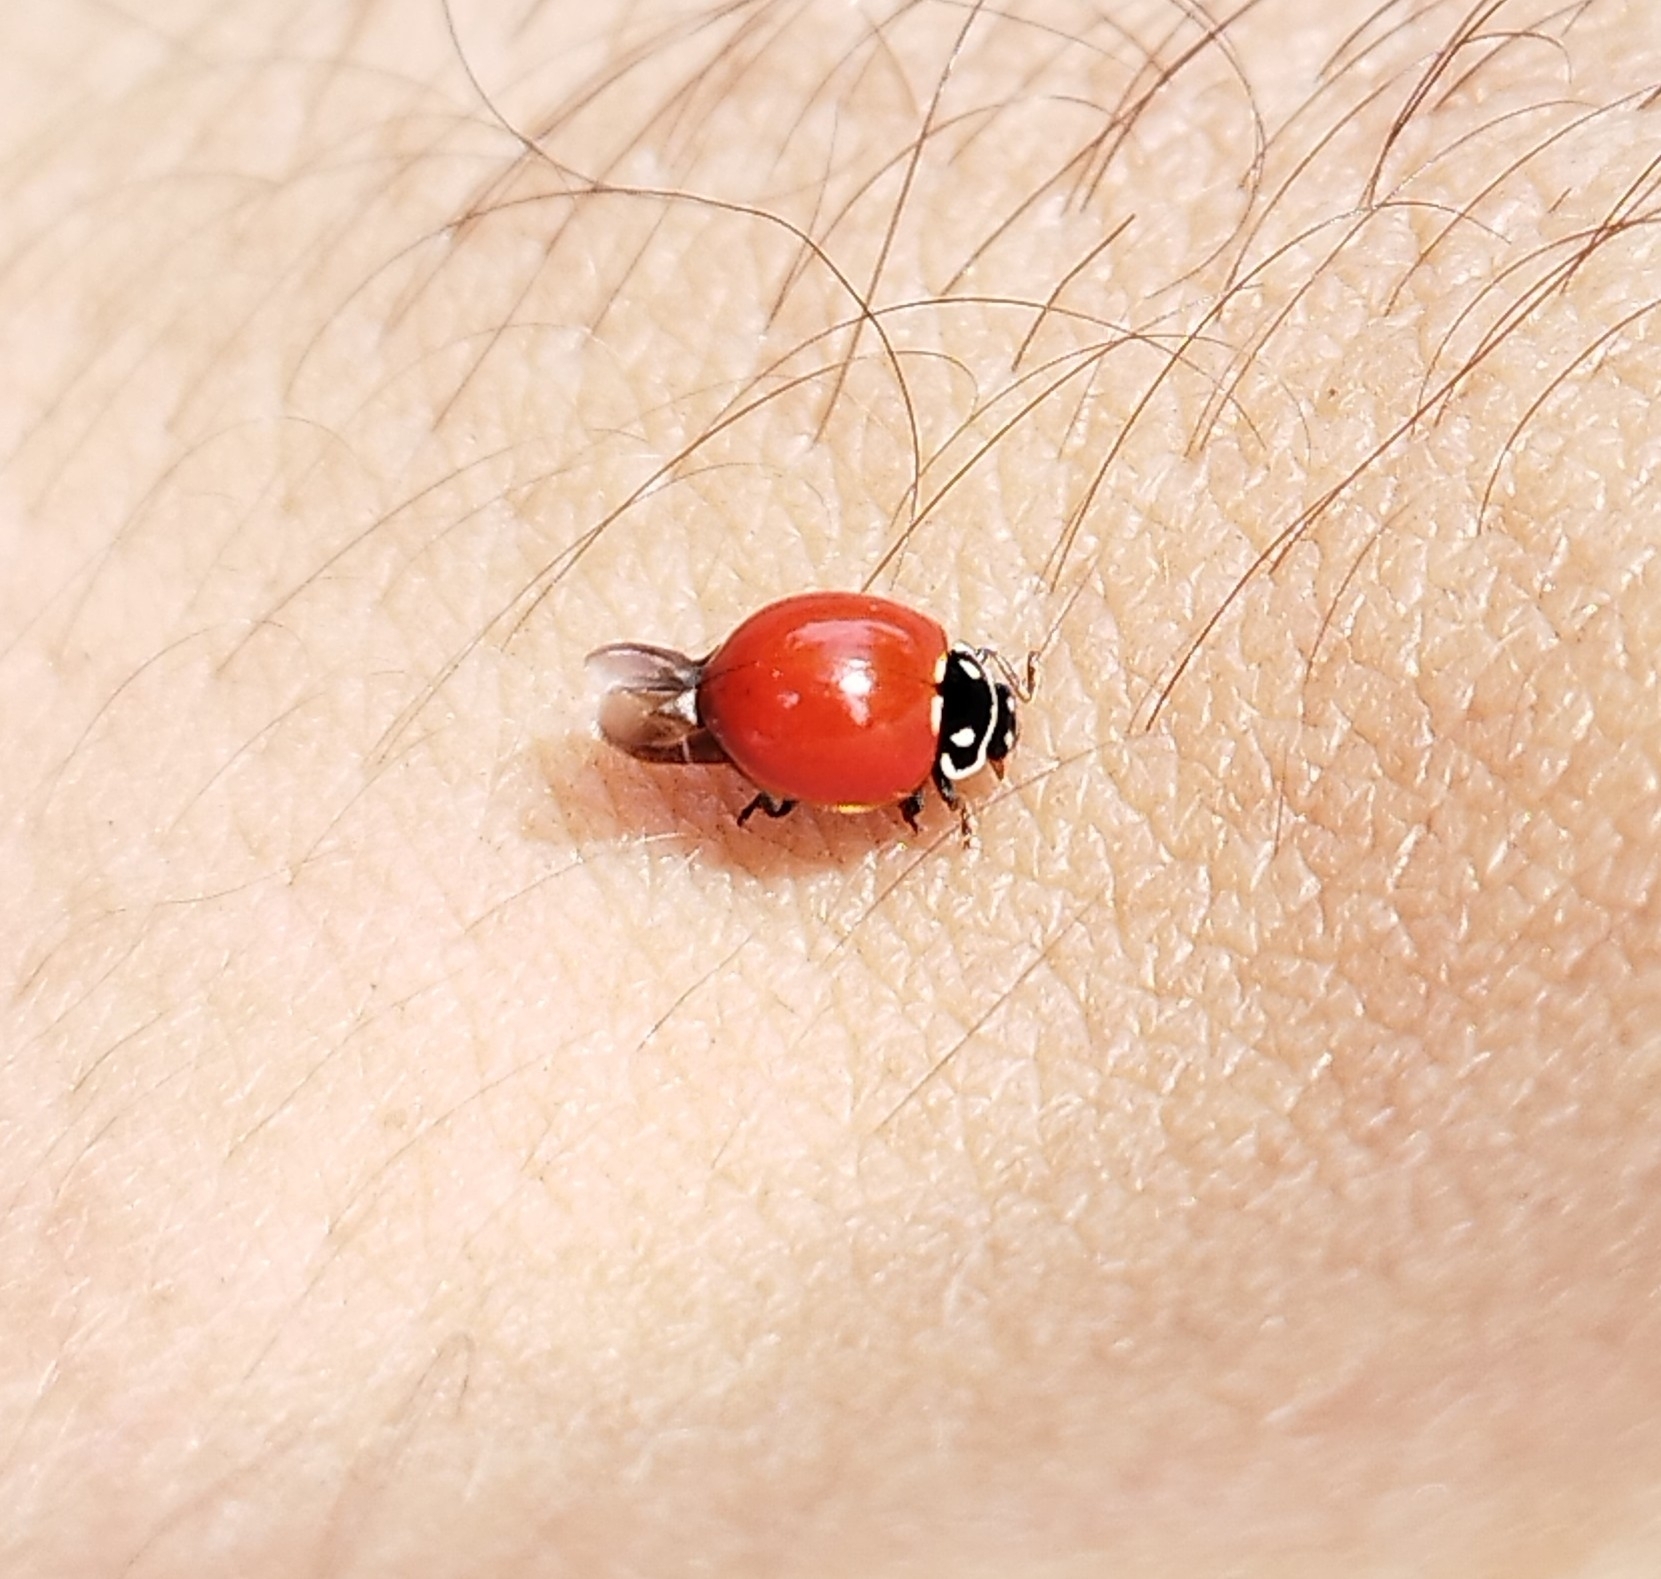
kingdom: Animalia
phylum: Arthropoda
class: Insecta
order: Coleoptera
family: Coccinellidae
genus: Cycloneda
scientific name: Cycloneda emarginata
